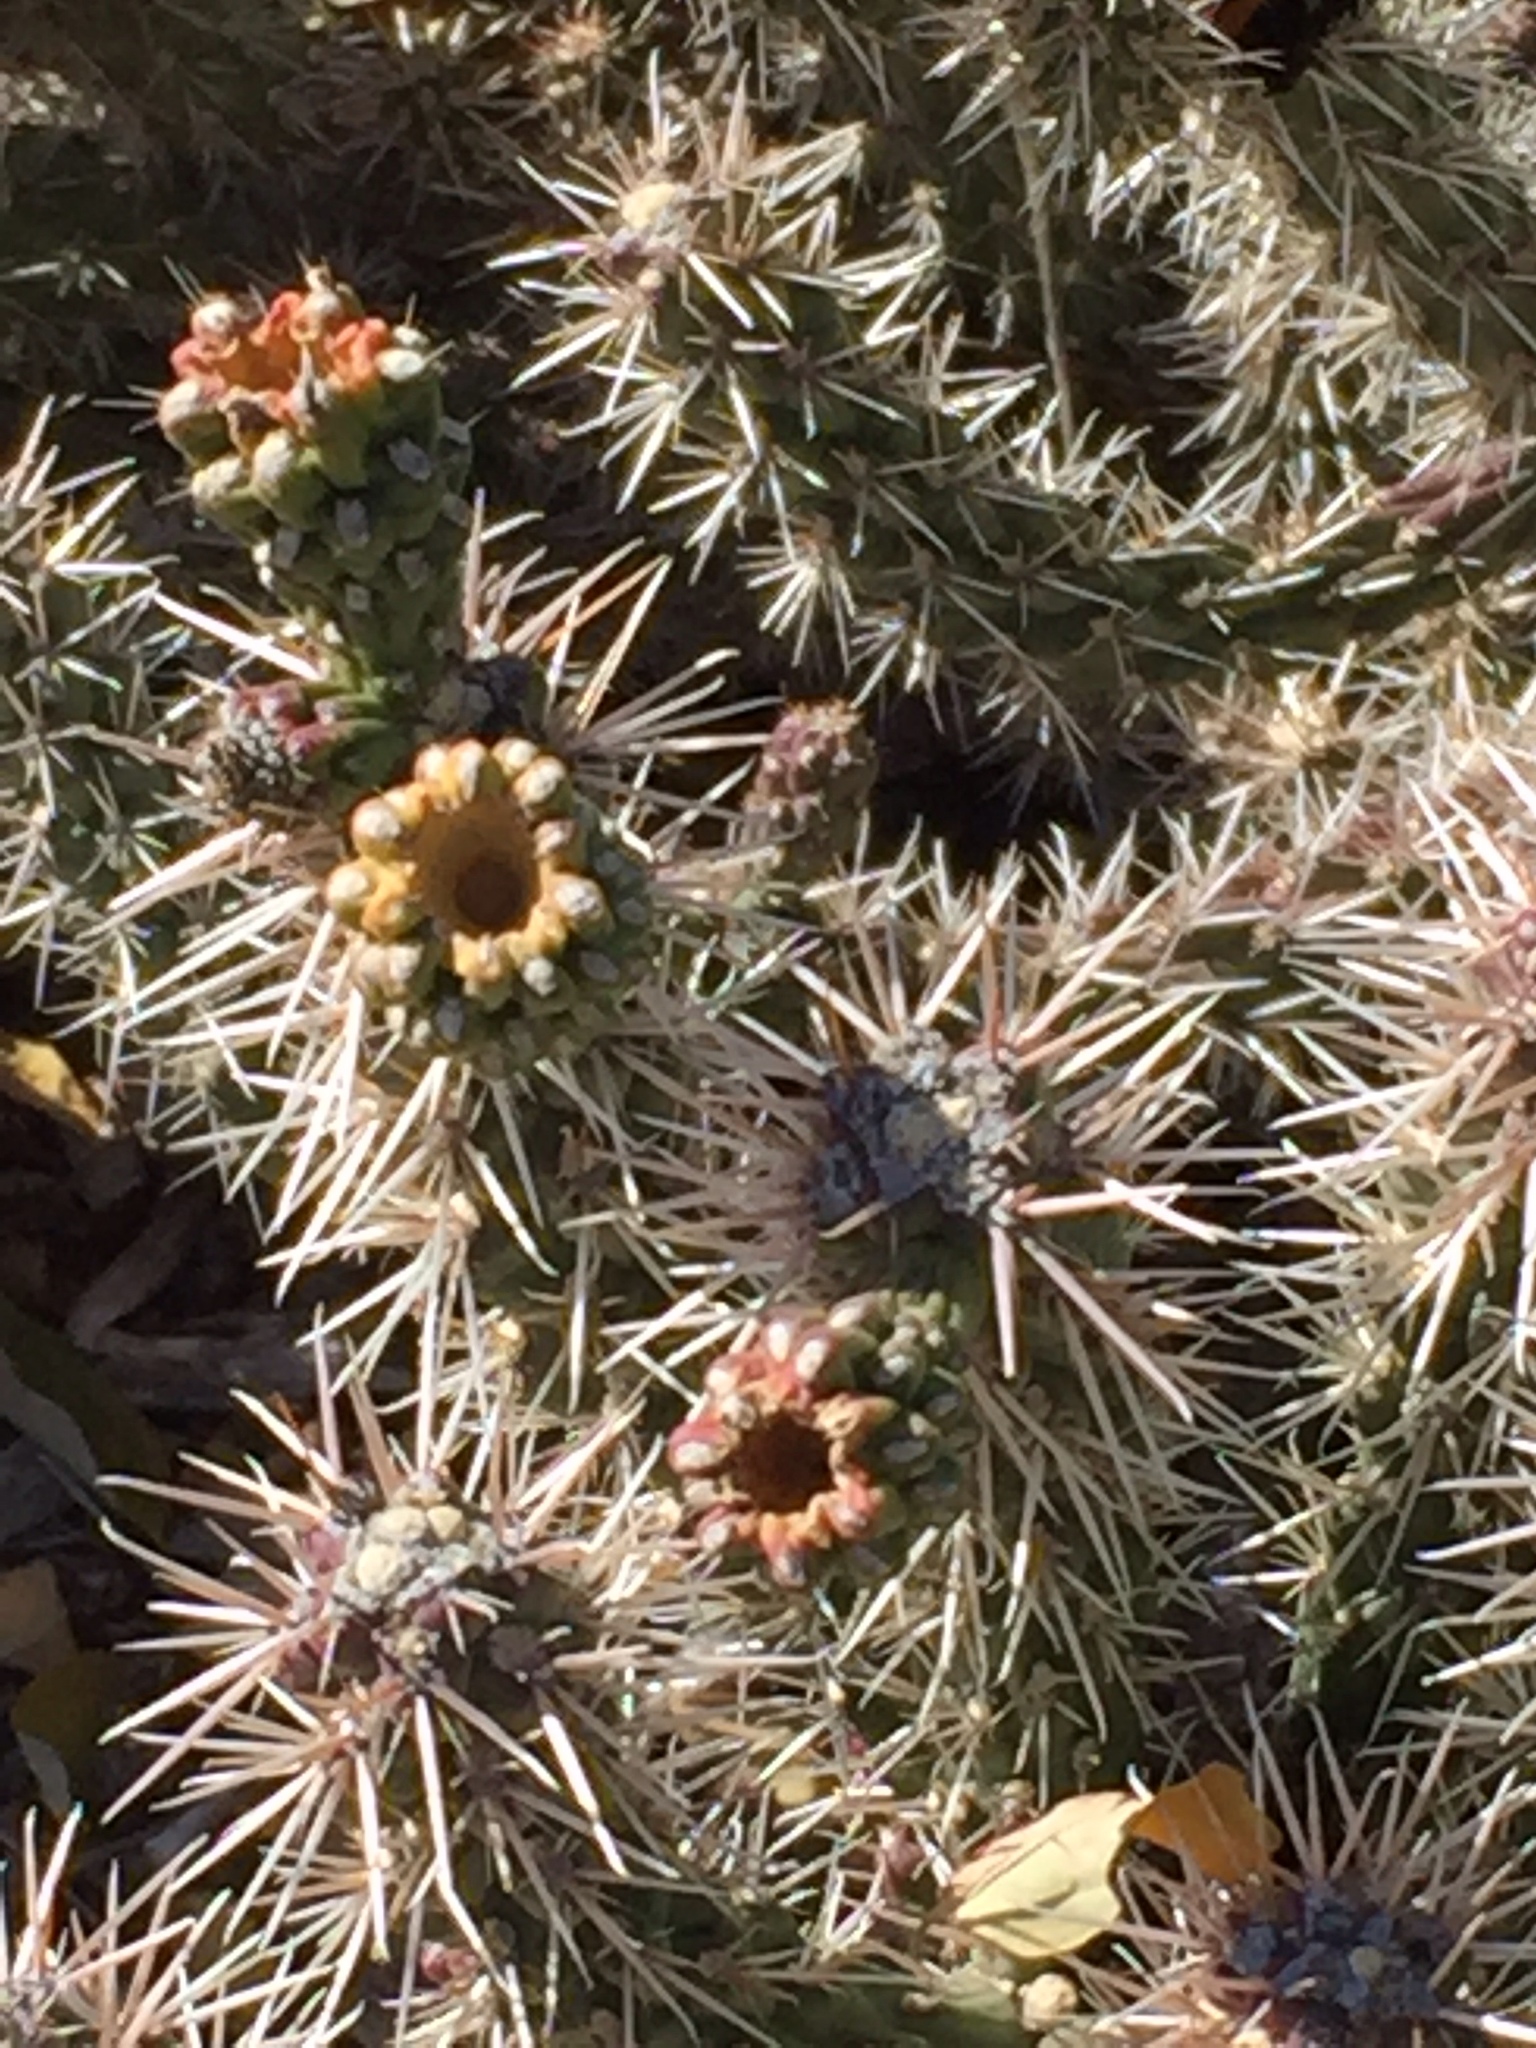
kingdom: Plantae
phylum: Tracheophyta
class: Magnoliopsida
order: Caryophyllales
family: Cactaceae
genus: Cylindropuntia
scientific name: Cylindropuntia whipplei
